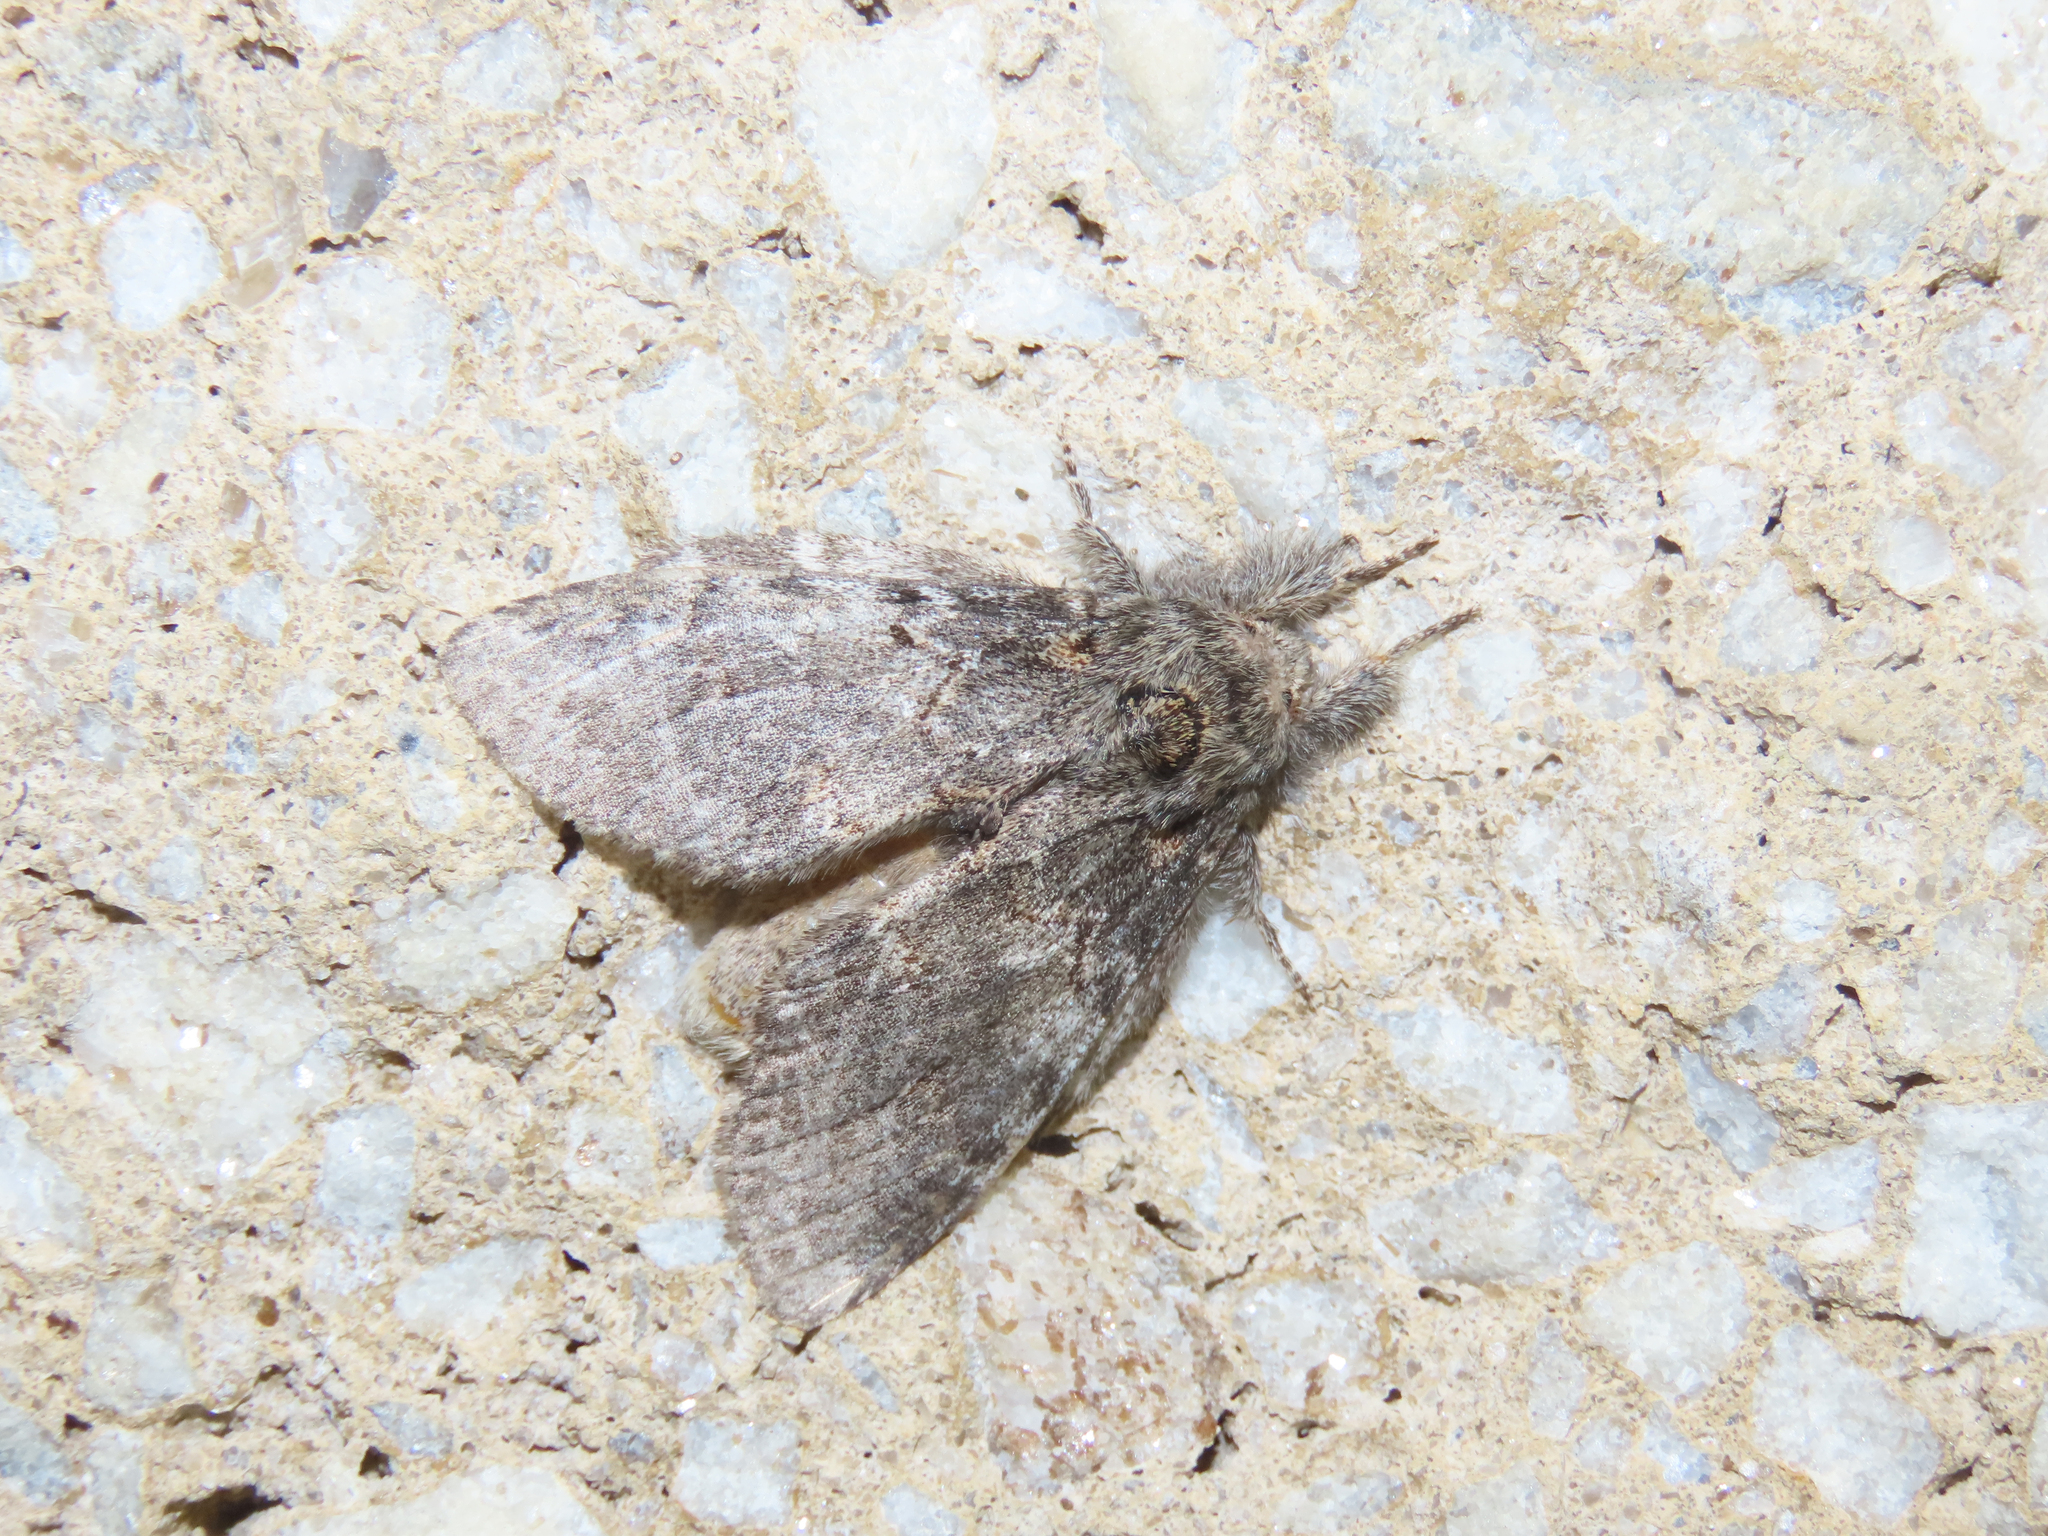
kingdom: Animalia
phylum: Arthropoda
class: Insecta
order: Lepidoptera
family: Notodontidae
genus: Peridea
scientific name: Peridea angulosa
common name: Angulose prominent
